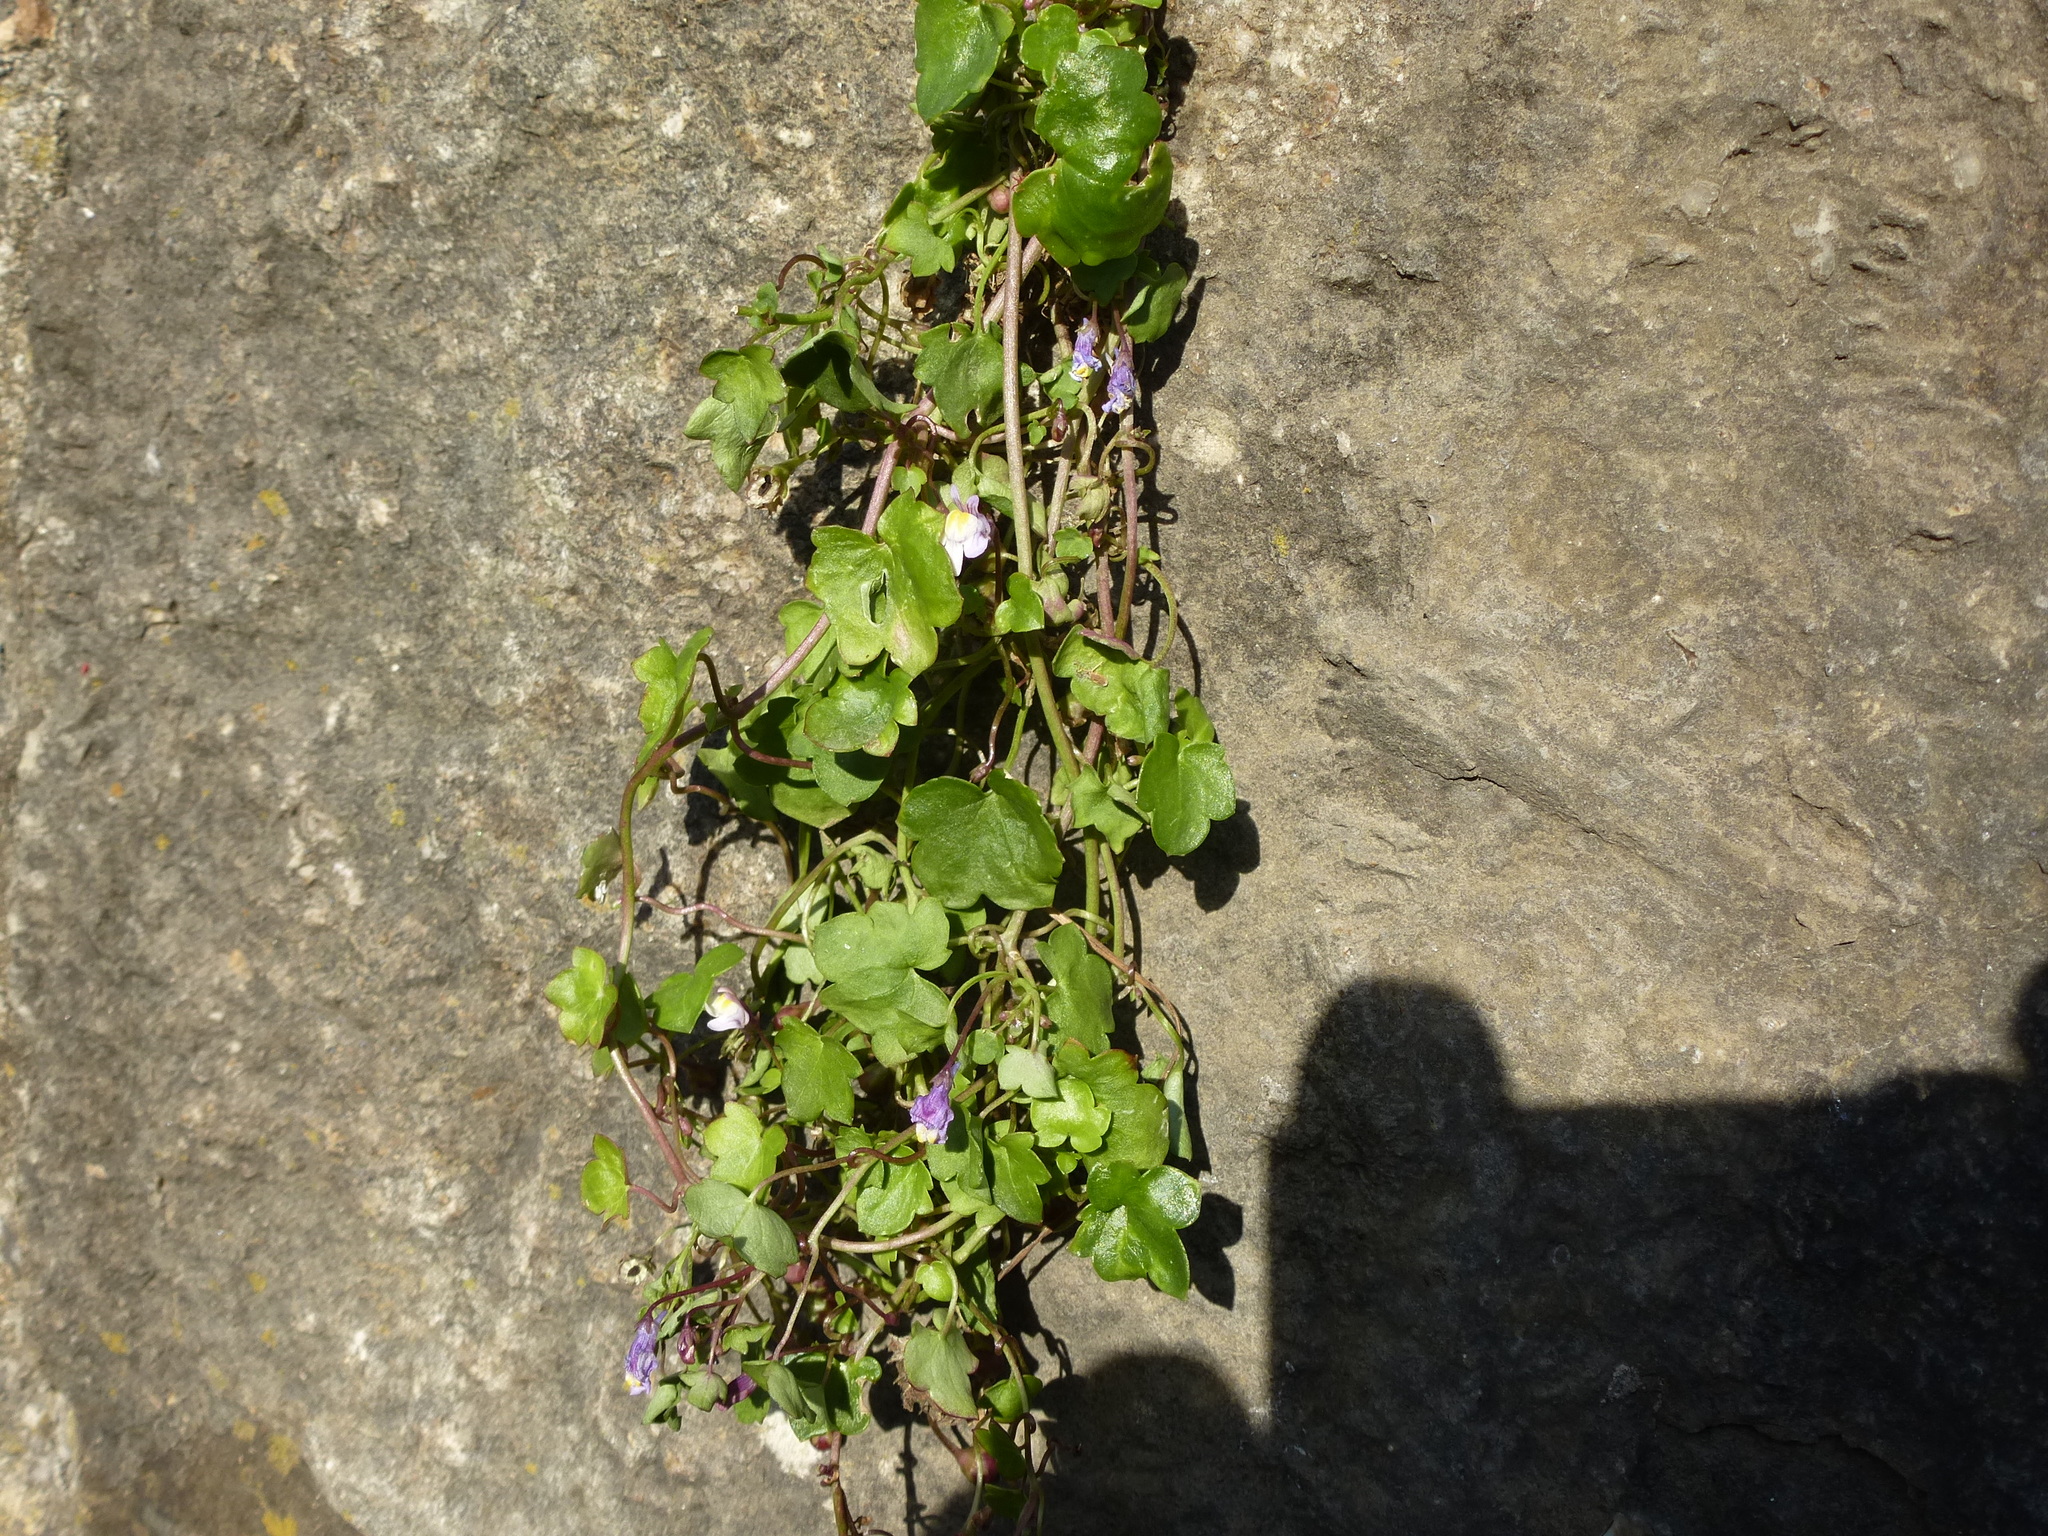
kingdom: Plantae
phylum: Tracheophyta
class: Magnoliopsida
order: Lamiales
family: Plantaginaceae
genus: Cymbalaria
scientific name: Cymbalaria muralis
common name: Ivy-leaved toadflax
